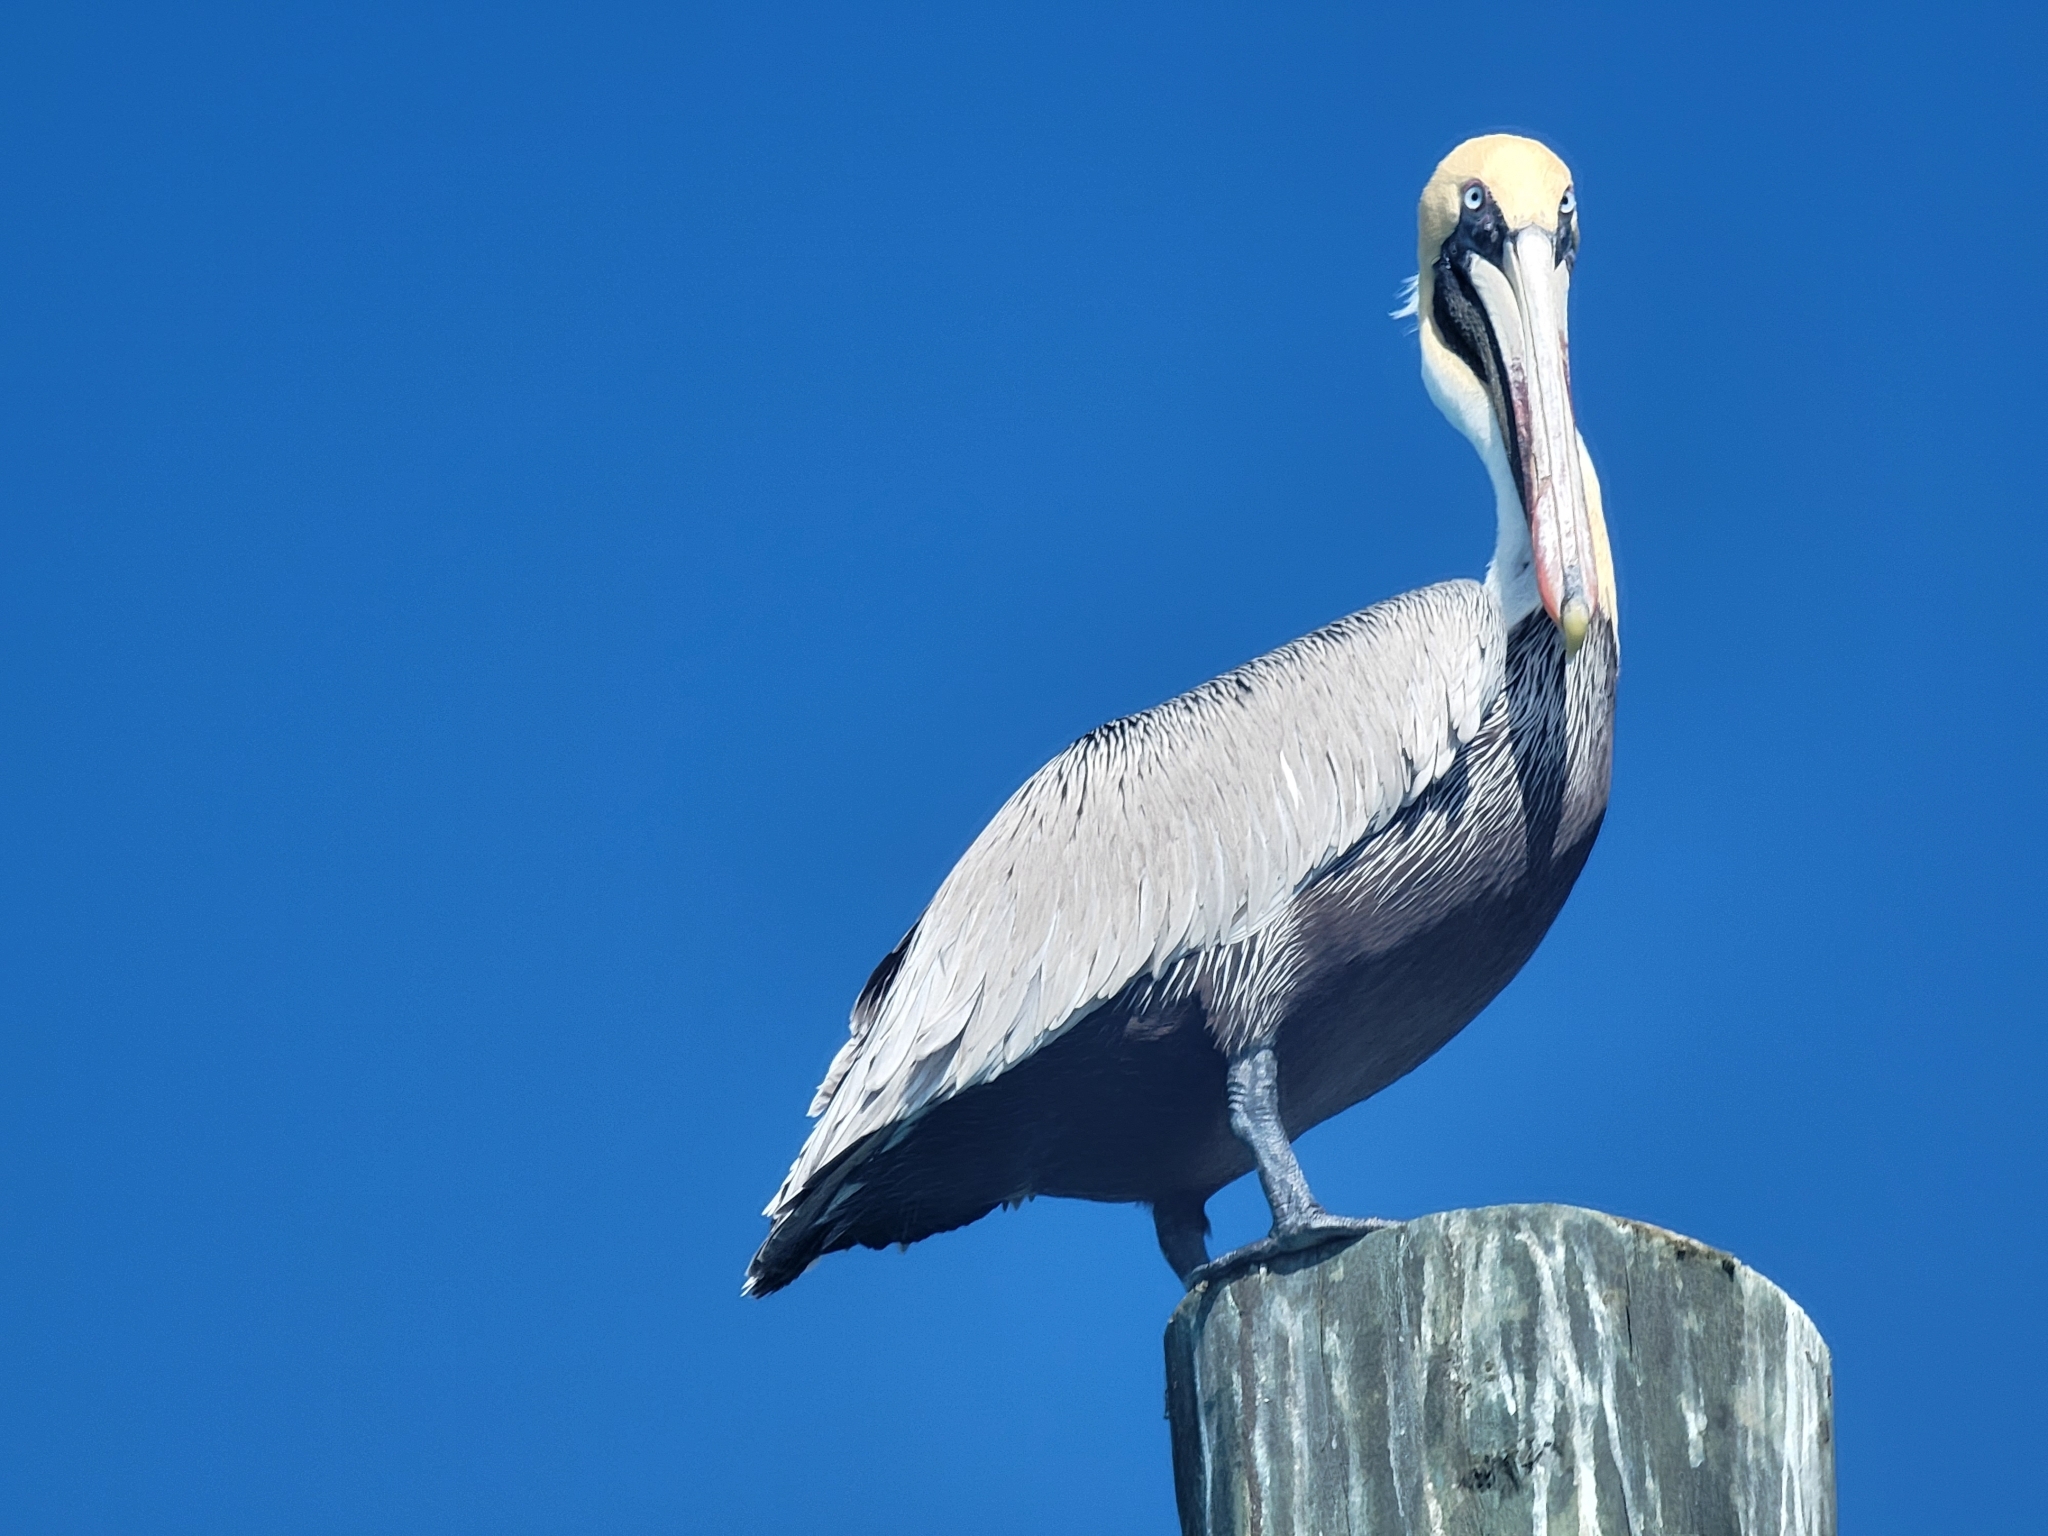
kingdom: Animalia
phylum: Chordata
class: Aves
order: Pelecaniformes
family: Pelecanidae
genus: Pelecanus
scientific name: Pelecanus occidentalis
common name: Brown pelican
